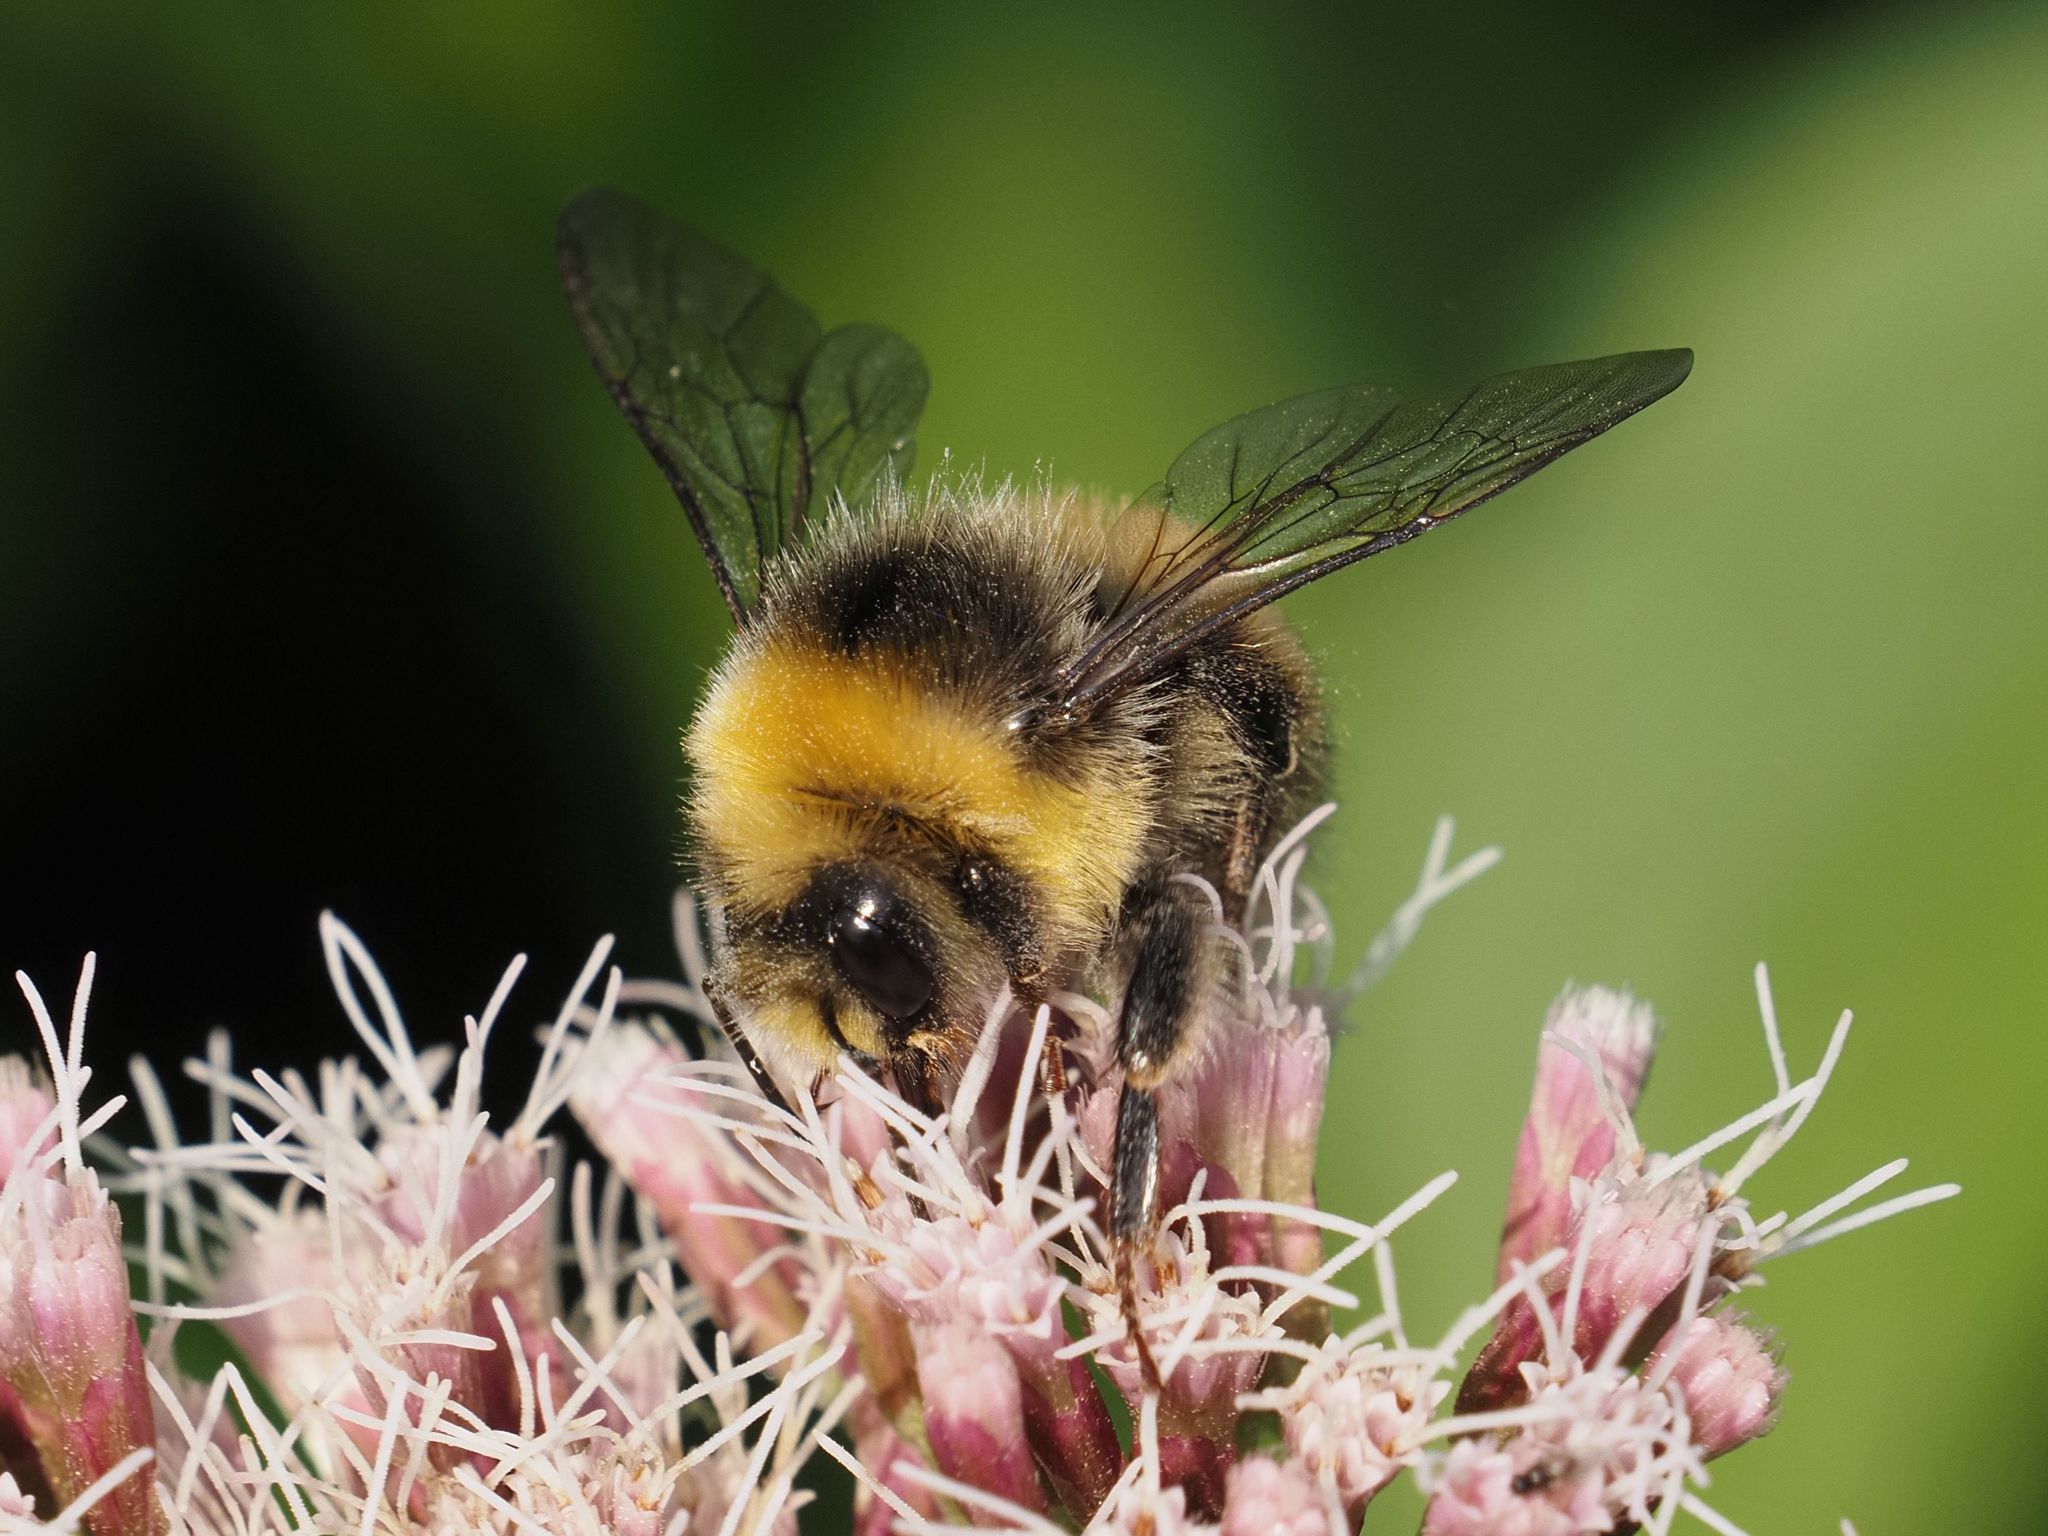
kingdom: Animalia
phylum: Arthropoda
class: Insecta
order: Hymenoptera
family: Apidae
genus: Bombus
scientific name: Bombus lucorum
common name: White-tailed bumblebee
